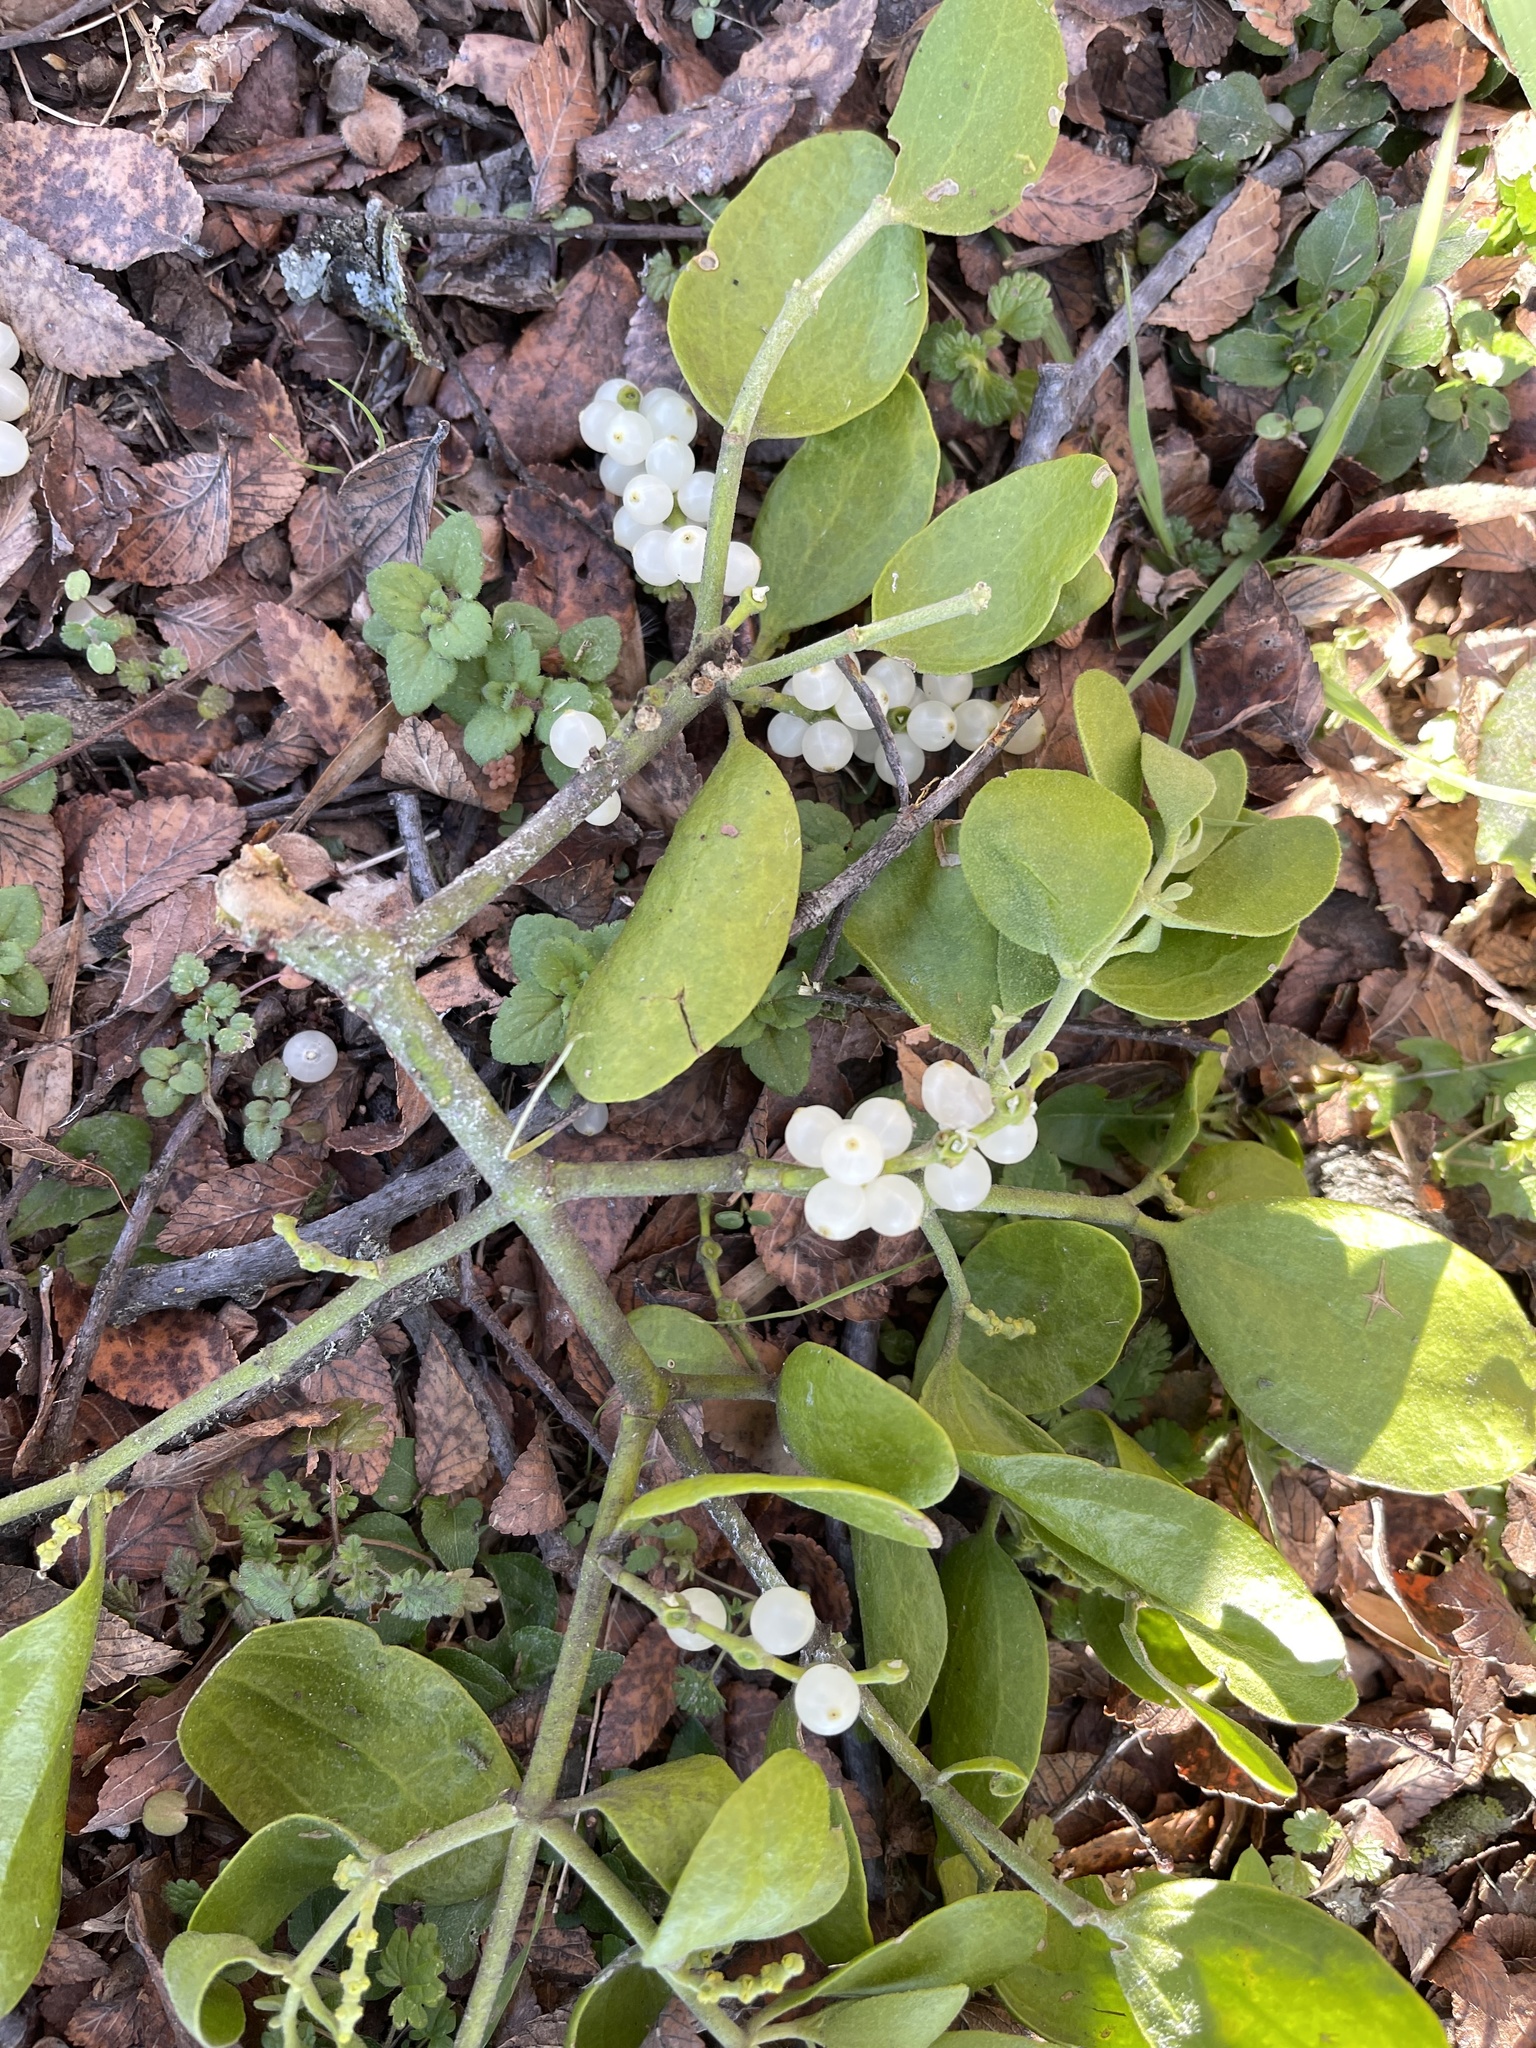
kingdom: Plantae
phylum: Tracheophyta
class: Magnoliopsida
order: Santalales
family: Viscaceae
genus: Phoradendron
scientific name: Phoradendron leucarpum
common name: Pacific mistletoe
